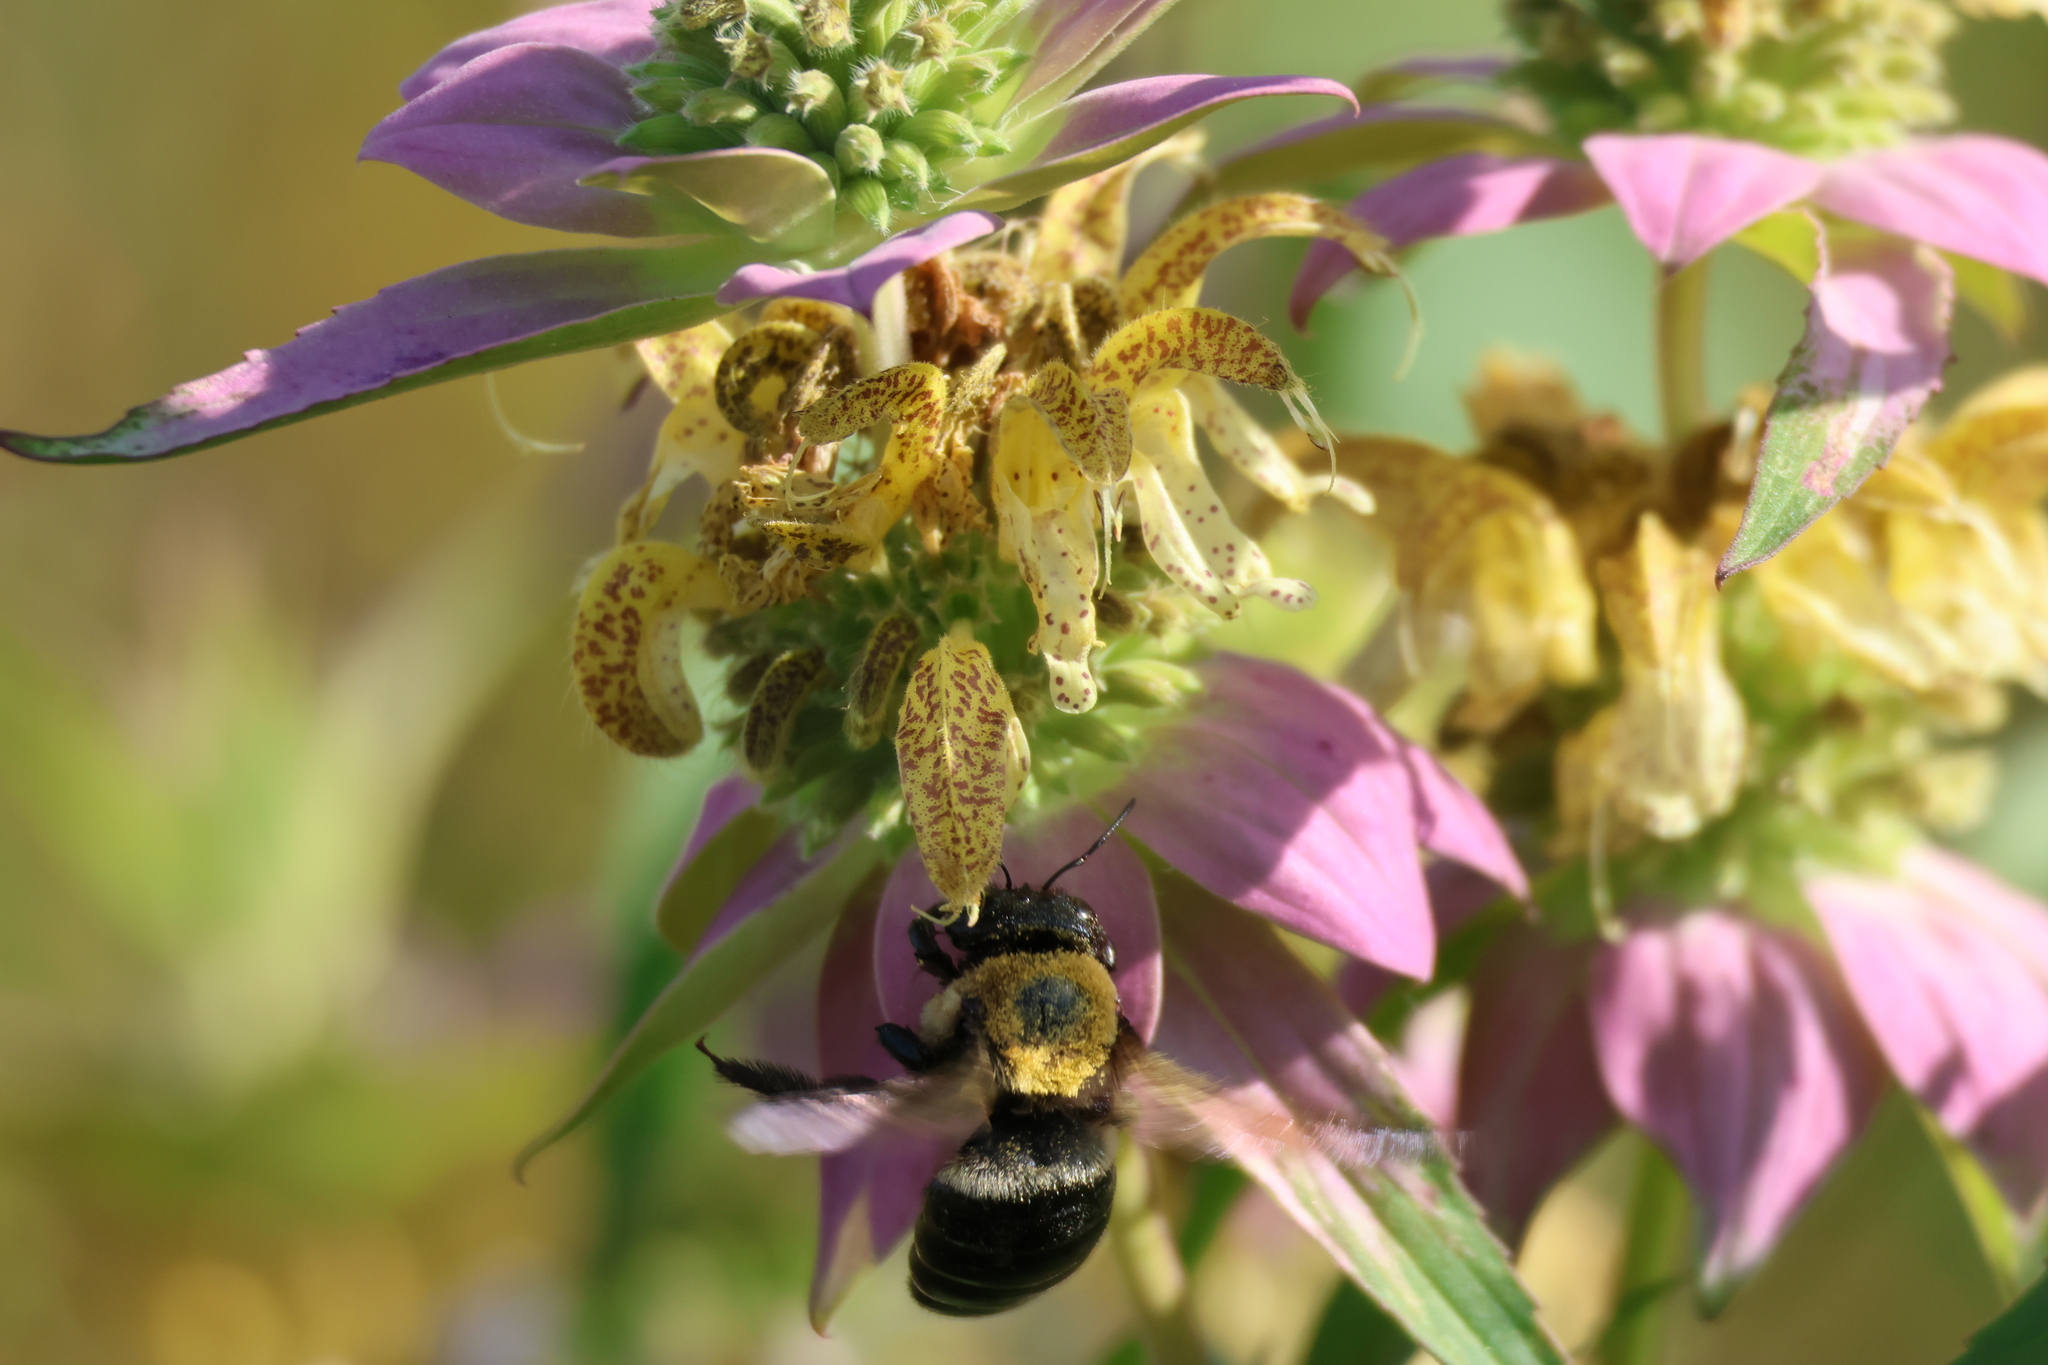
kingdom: Animalia
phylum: Arthropoda
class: Insecta
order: Hymenoptera
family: Apidae
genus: Xylocopa
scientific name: Xylocopa virginica
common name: Carpenter bee
